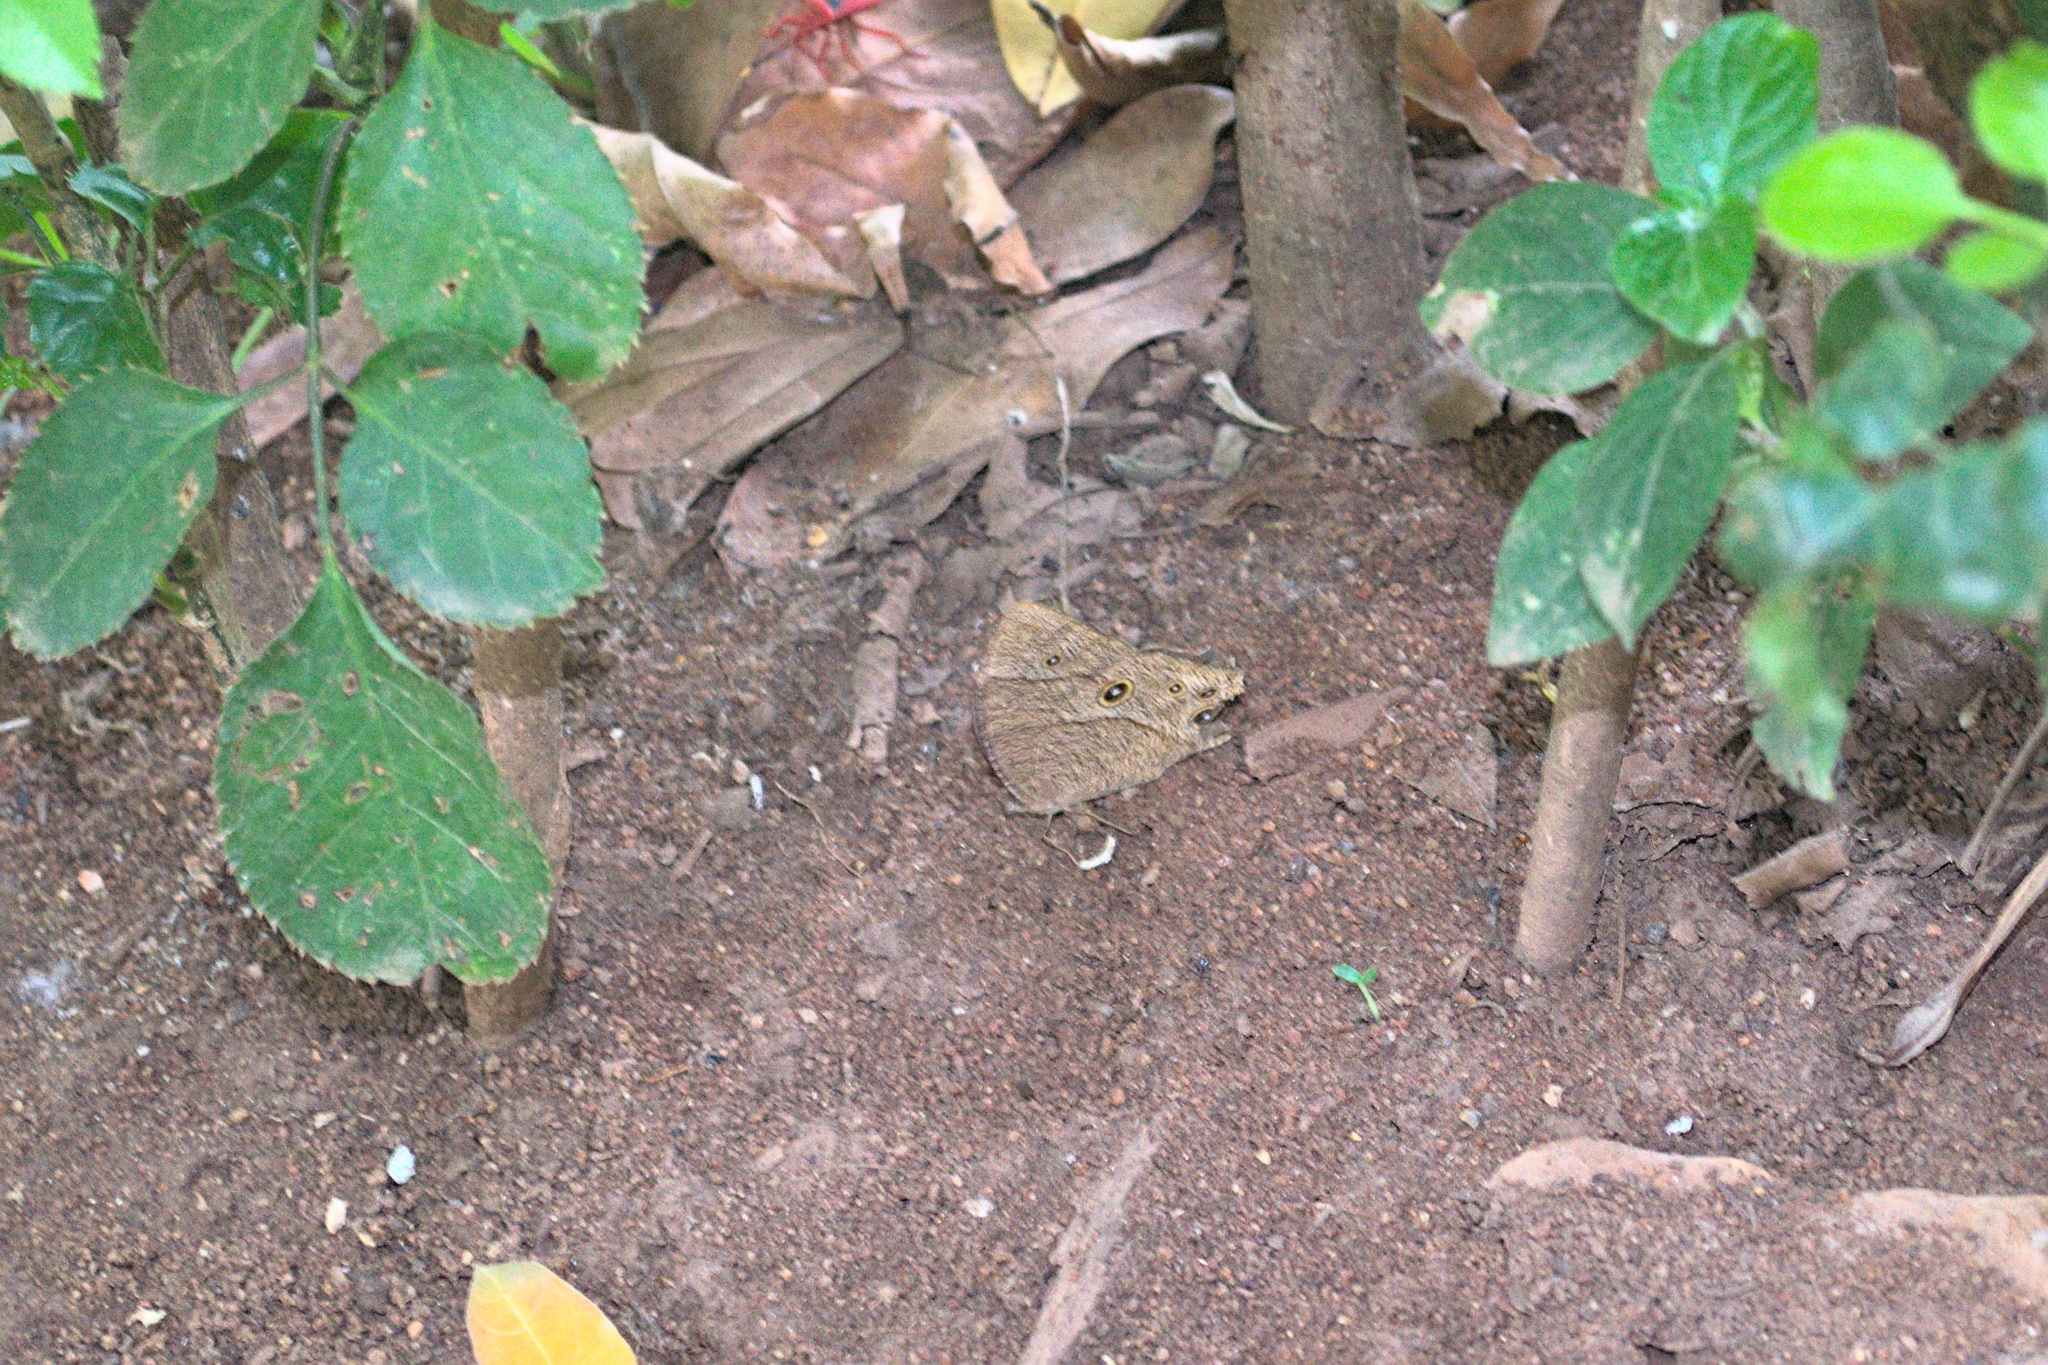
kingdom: Animalia
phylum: Arthropoda
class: Insecta
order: Lepidoptera
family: Nymphalidae
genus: Melanitis
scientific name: Melanitis leda
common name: Twilight brown
